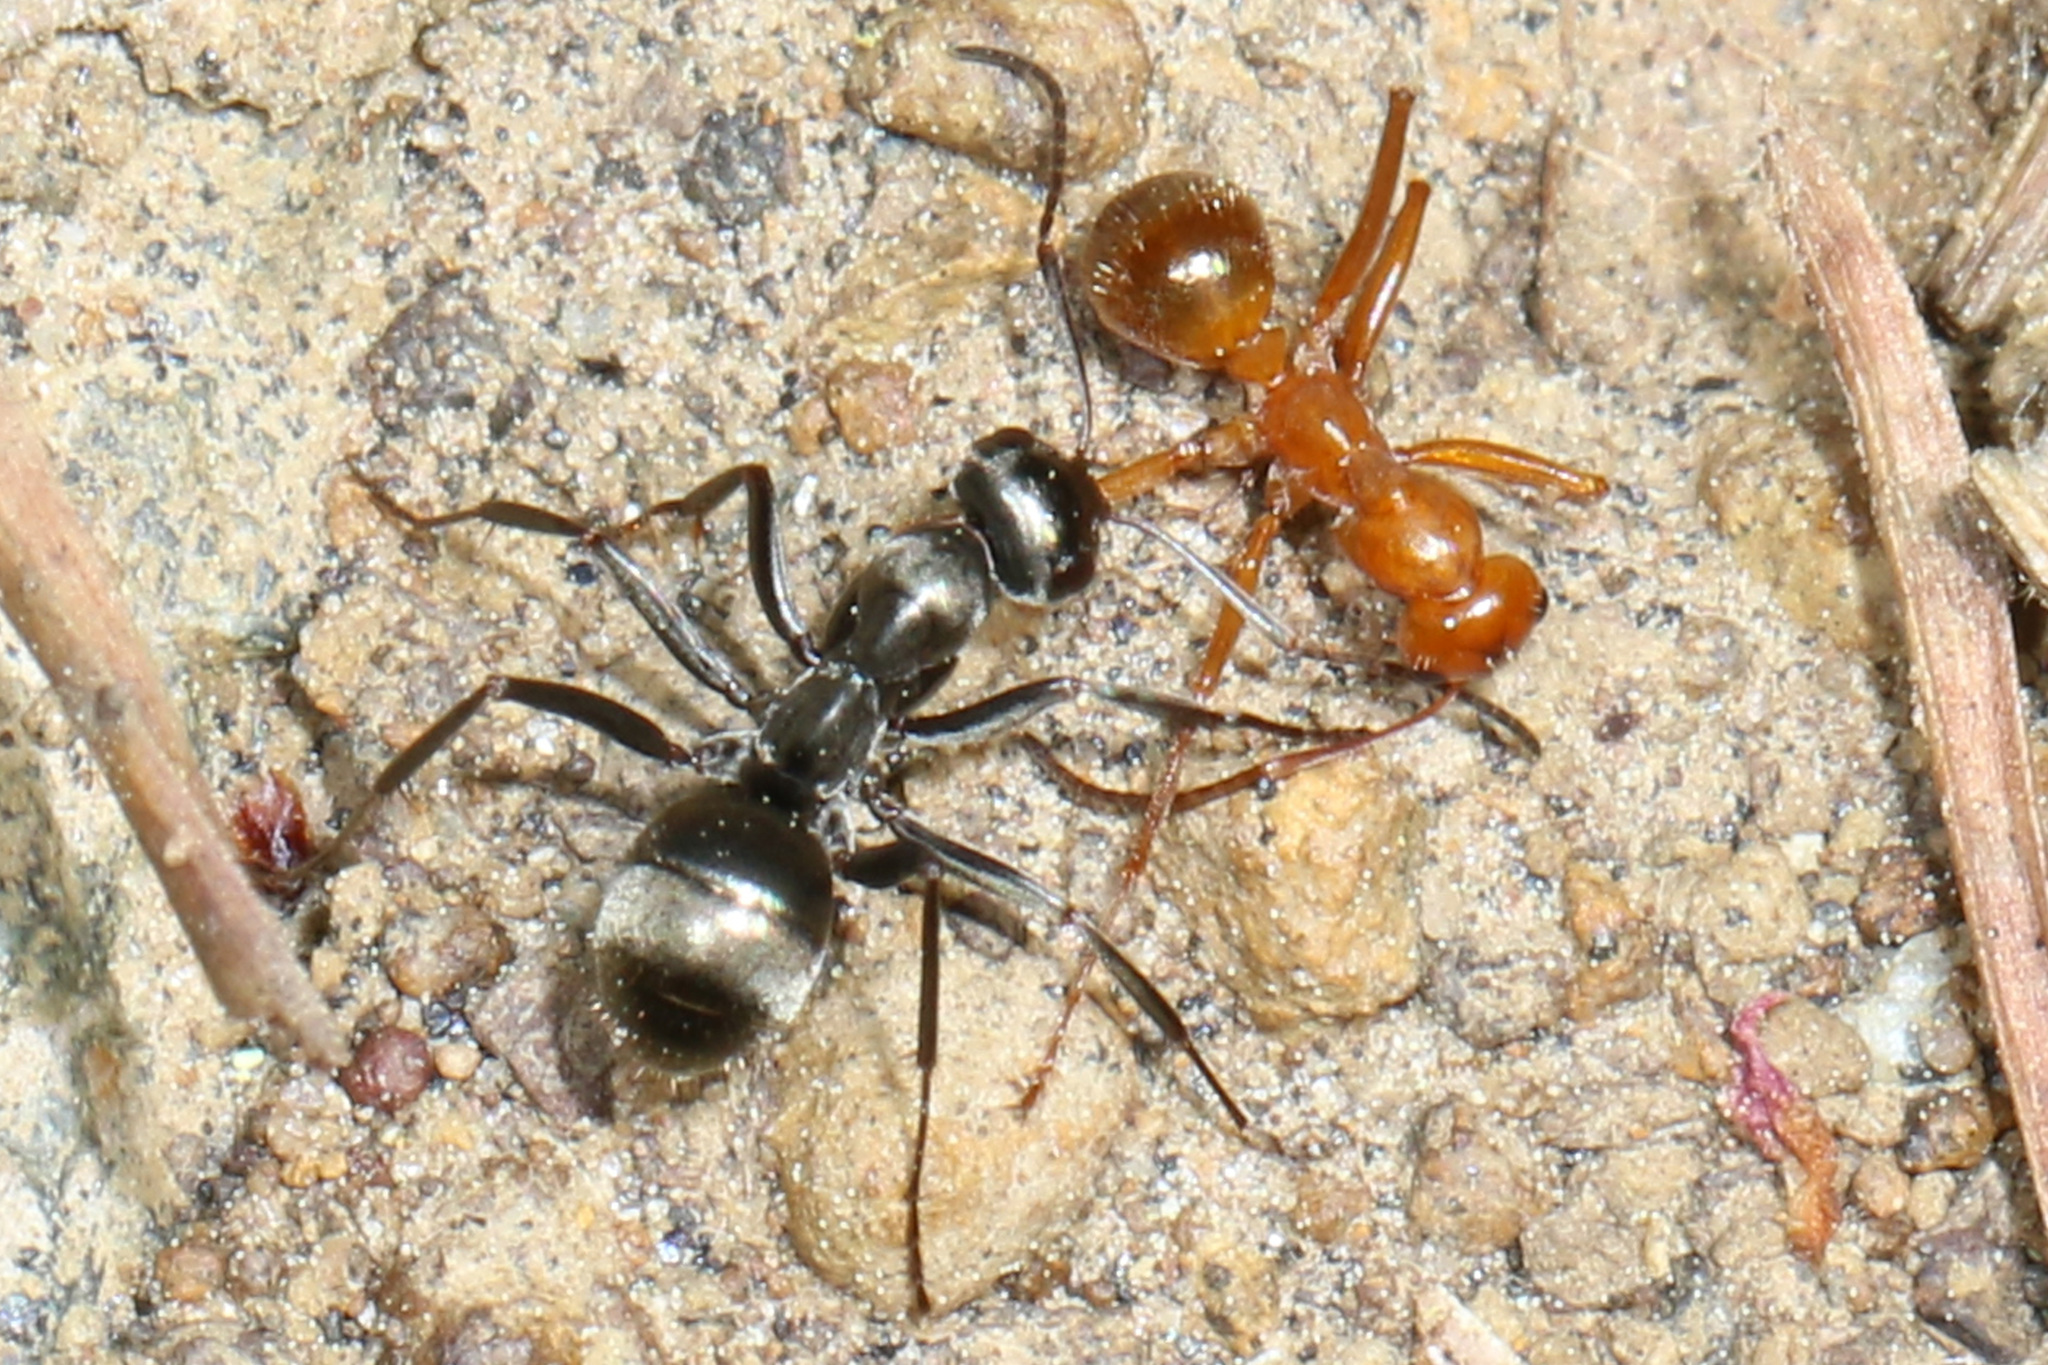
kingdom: Animalia
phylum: Arthropoda
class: Insecta
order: Hymenoptera
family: Formicidae
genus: Formica
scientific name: Formica subsericea
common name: Silky field ant
